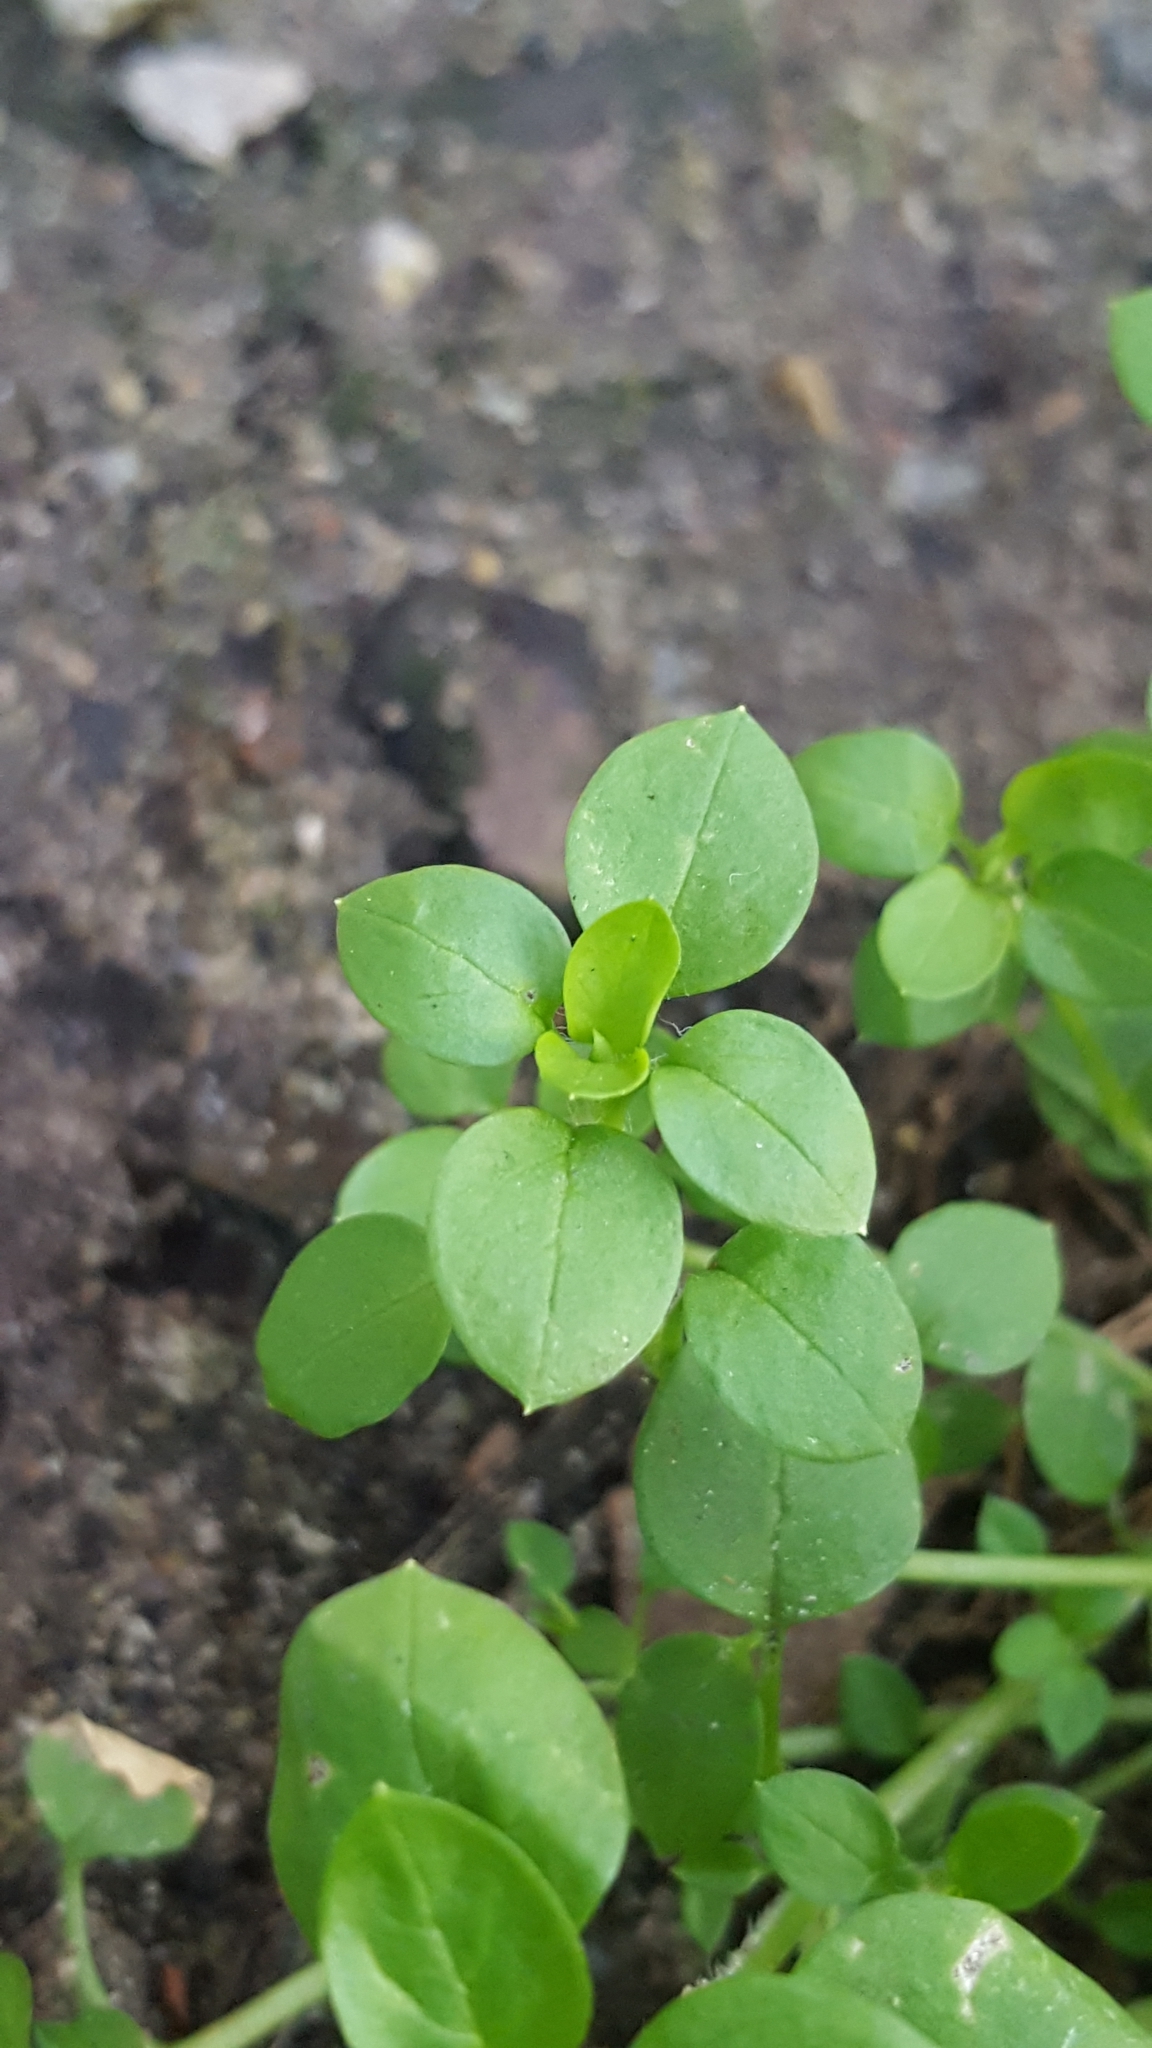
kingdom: Plantae
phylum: Tracheophyta
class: Magnoliopsida
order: Caryophyllales
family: Caryophyllaceae
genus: Stellaria
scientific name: Stellaria media
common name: Common chickweed
